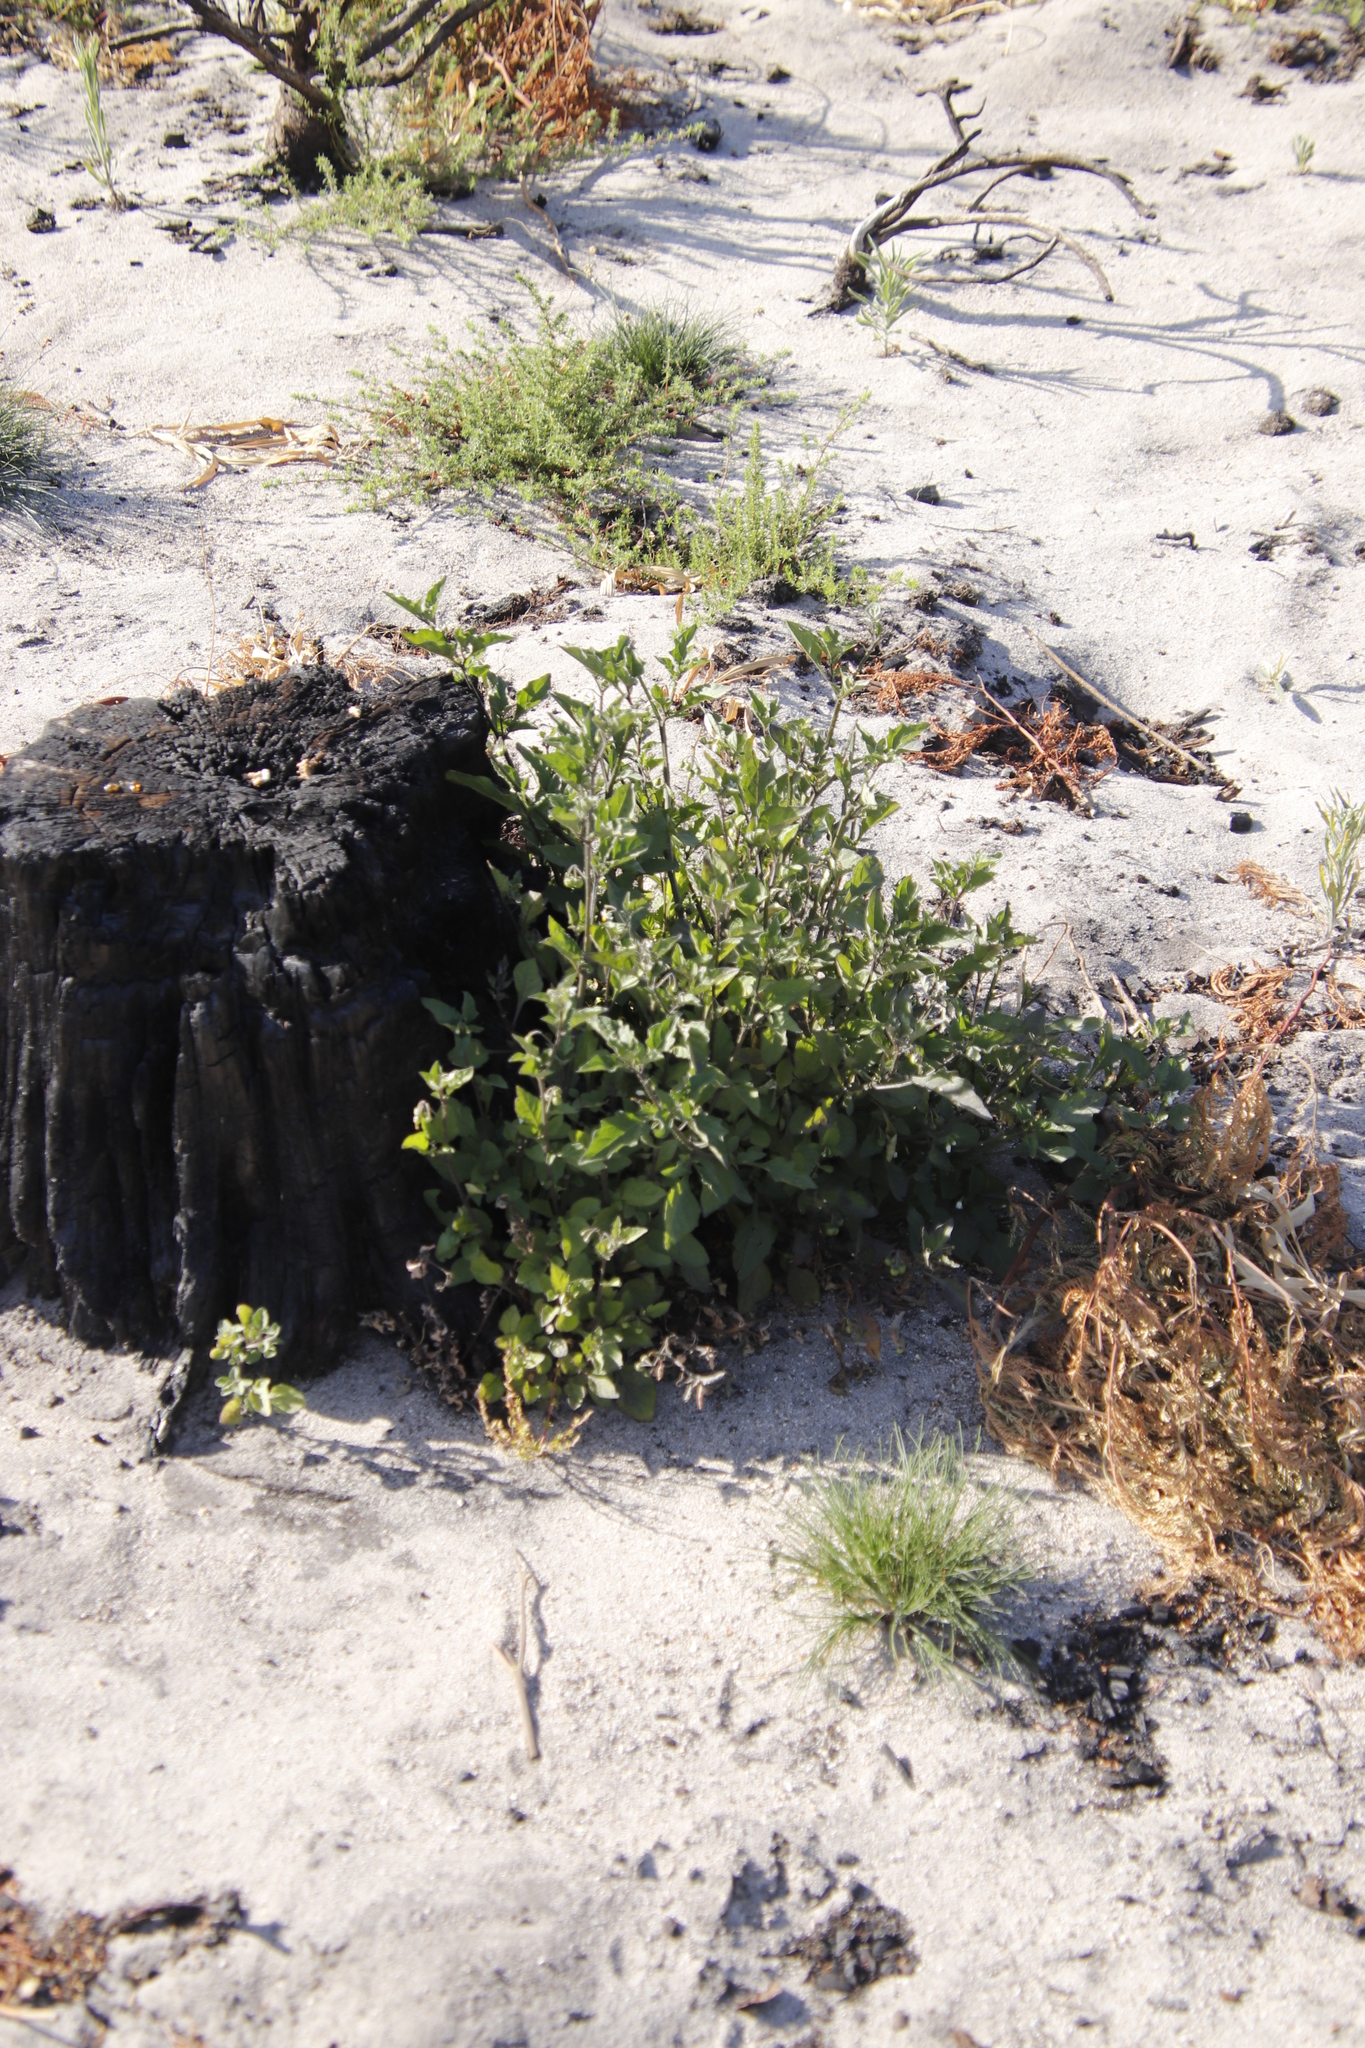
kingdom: Plantae
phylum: Tracheophyta
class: Magnoliopsida
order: Solanales
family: Solanaceae
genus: Solanum
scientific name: Solanum nigrum
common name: Black nightshade
